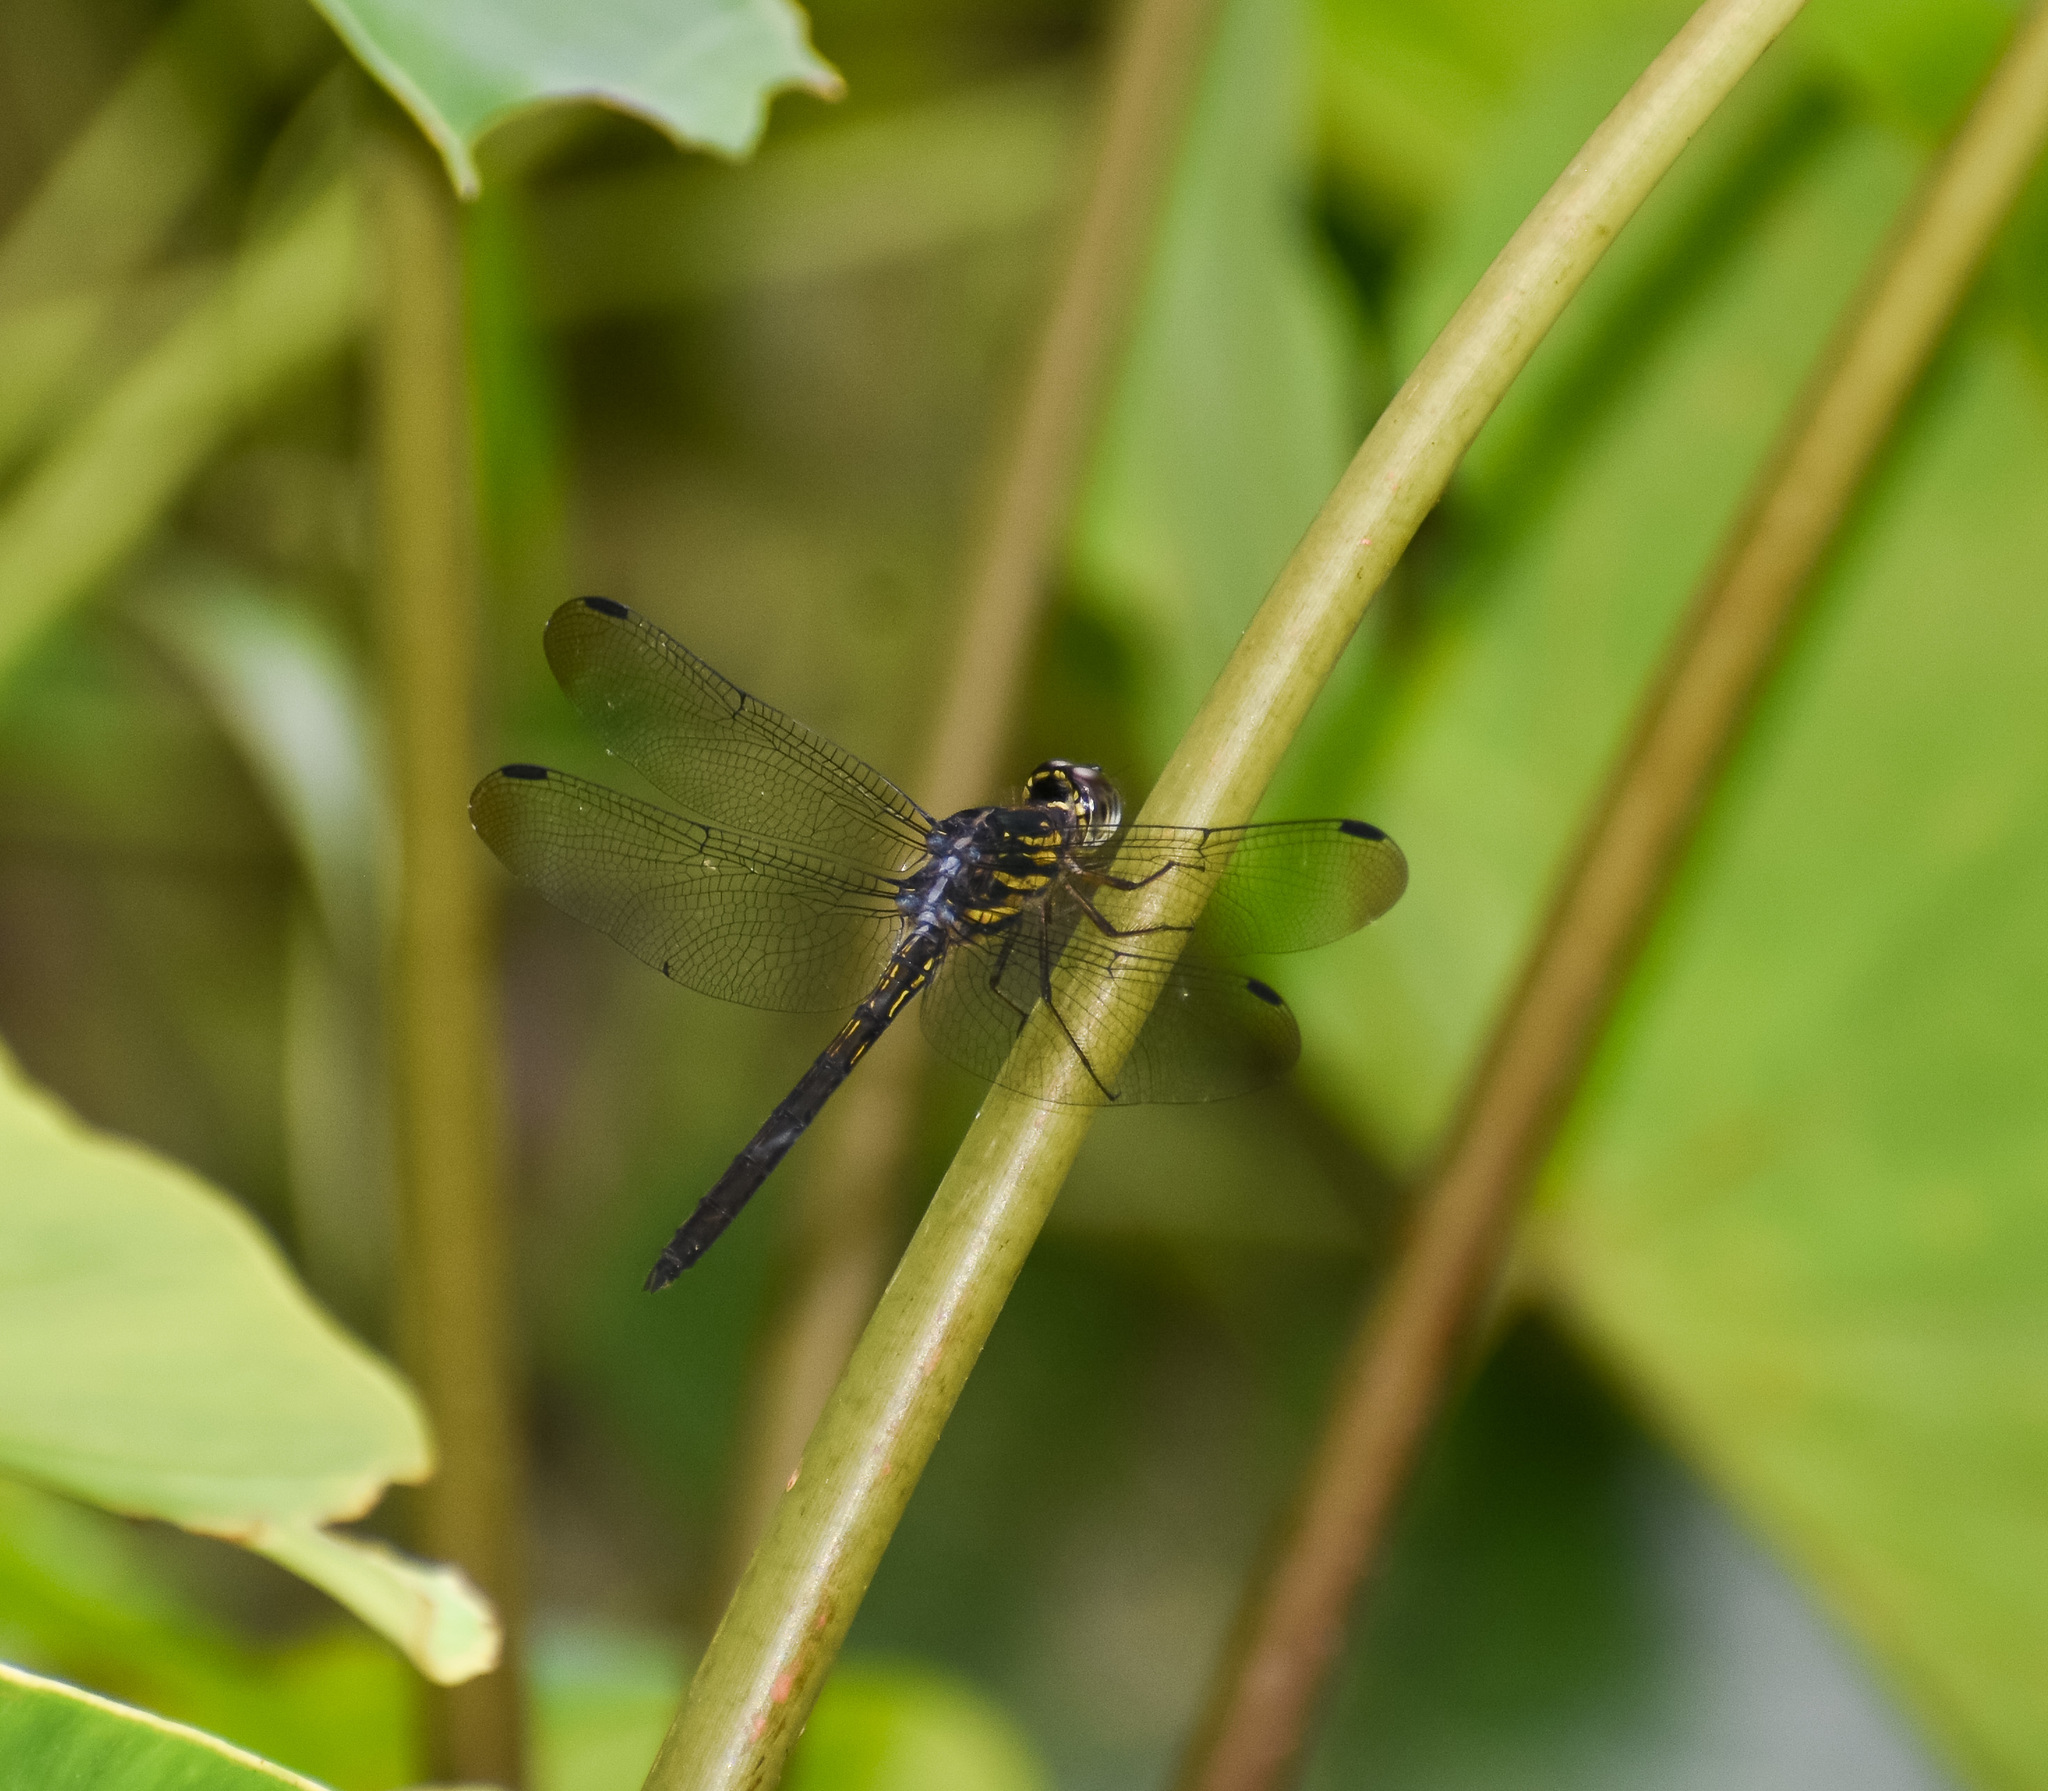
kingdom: Animalia
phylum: Arthropoda
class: Insecta
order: Odonata
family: Libellulidae
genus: Cratilla
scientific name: Cratilla lineata
